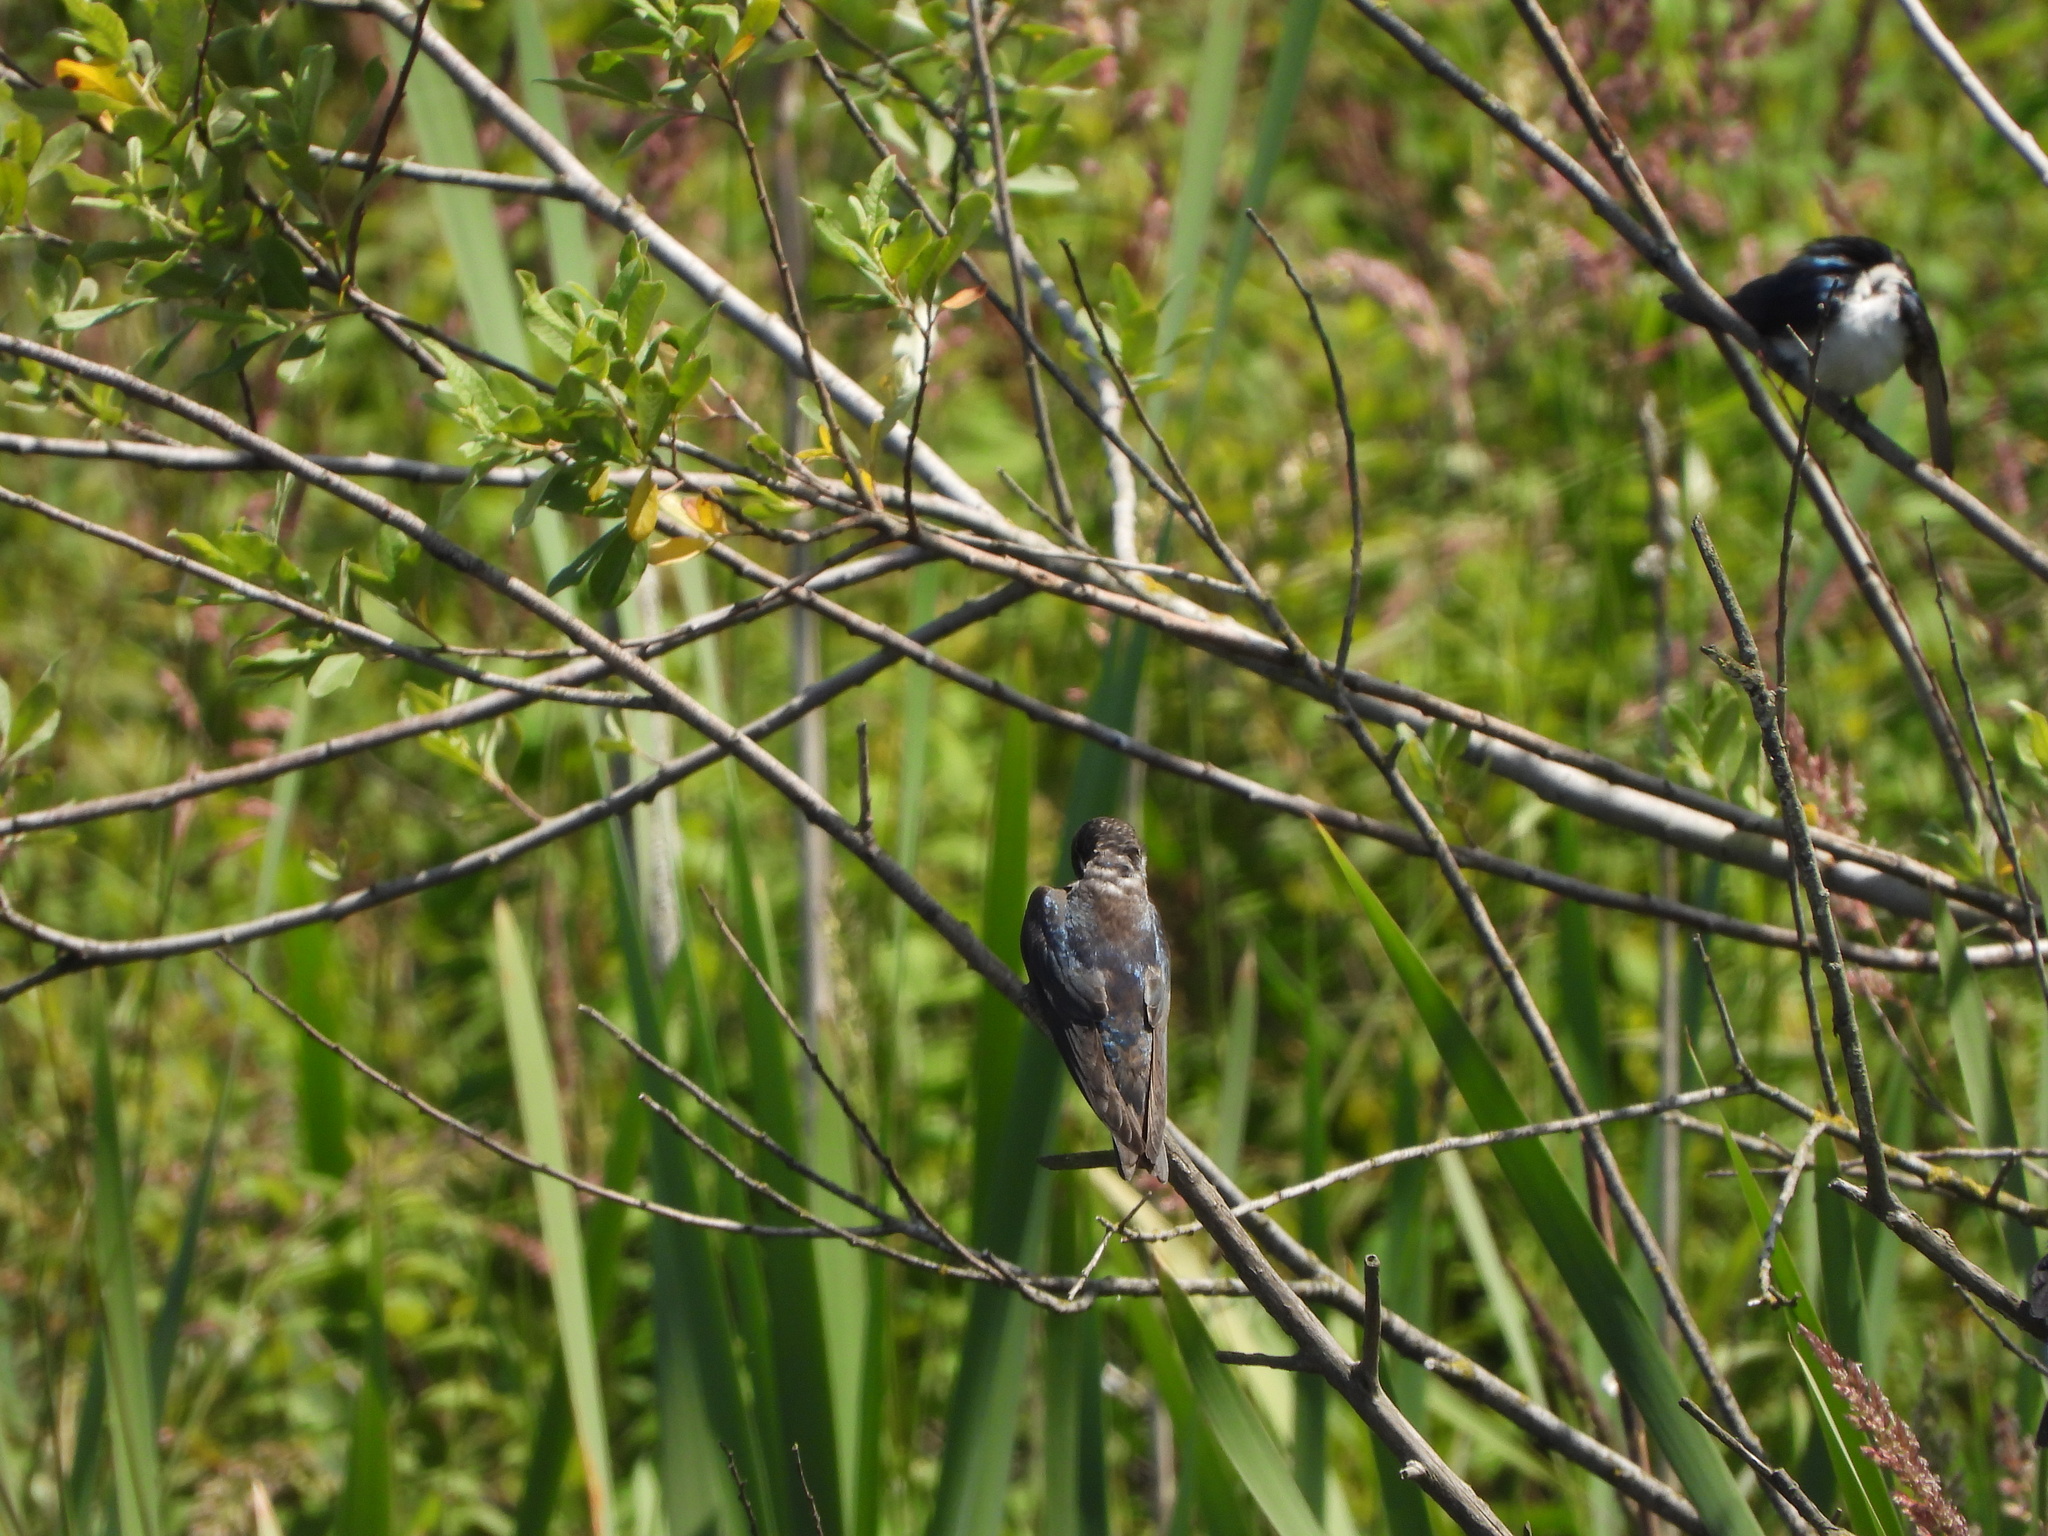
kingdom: Animalia
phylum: Chordata
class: Aves
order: Passeriformes
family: Hirundinidae
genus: Tachycineta
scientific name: Tachycineta bicolor
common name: Tree swallow
